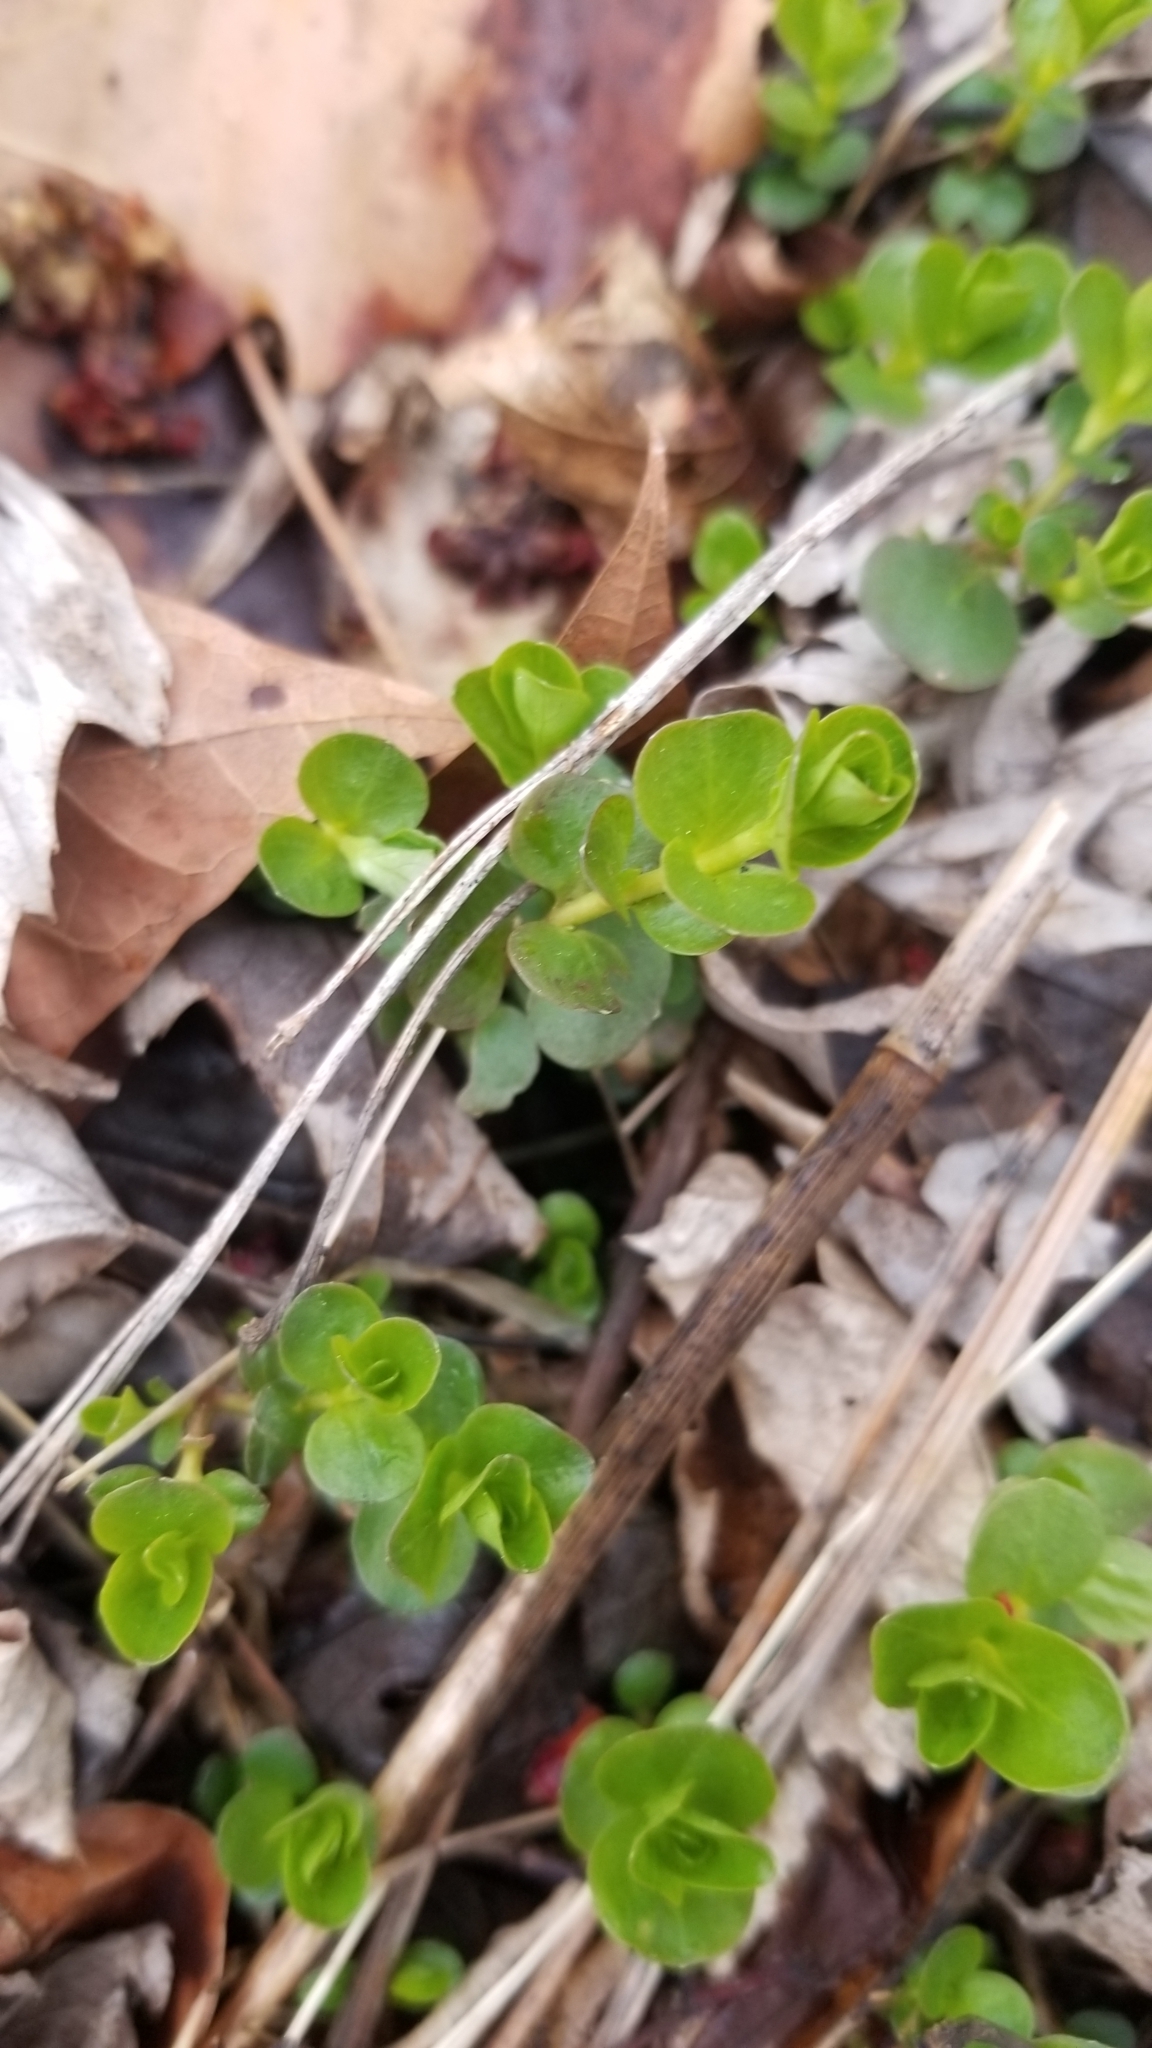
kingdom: Plantae
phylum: Tracheophyta
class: Magnoliopsida
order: Ericales
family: Primulaceae
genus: Lysimachia
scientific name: Lysimachia nummularia
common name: Moneywort
